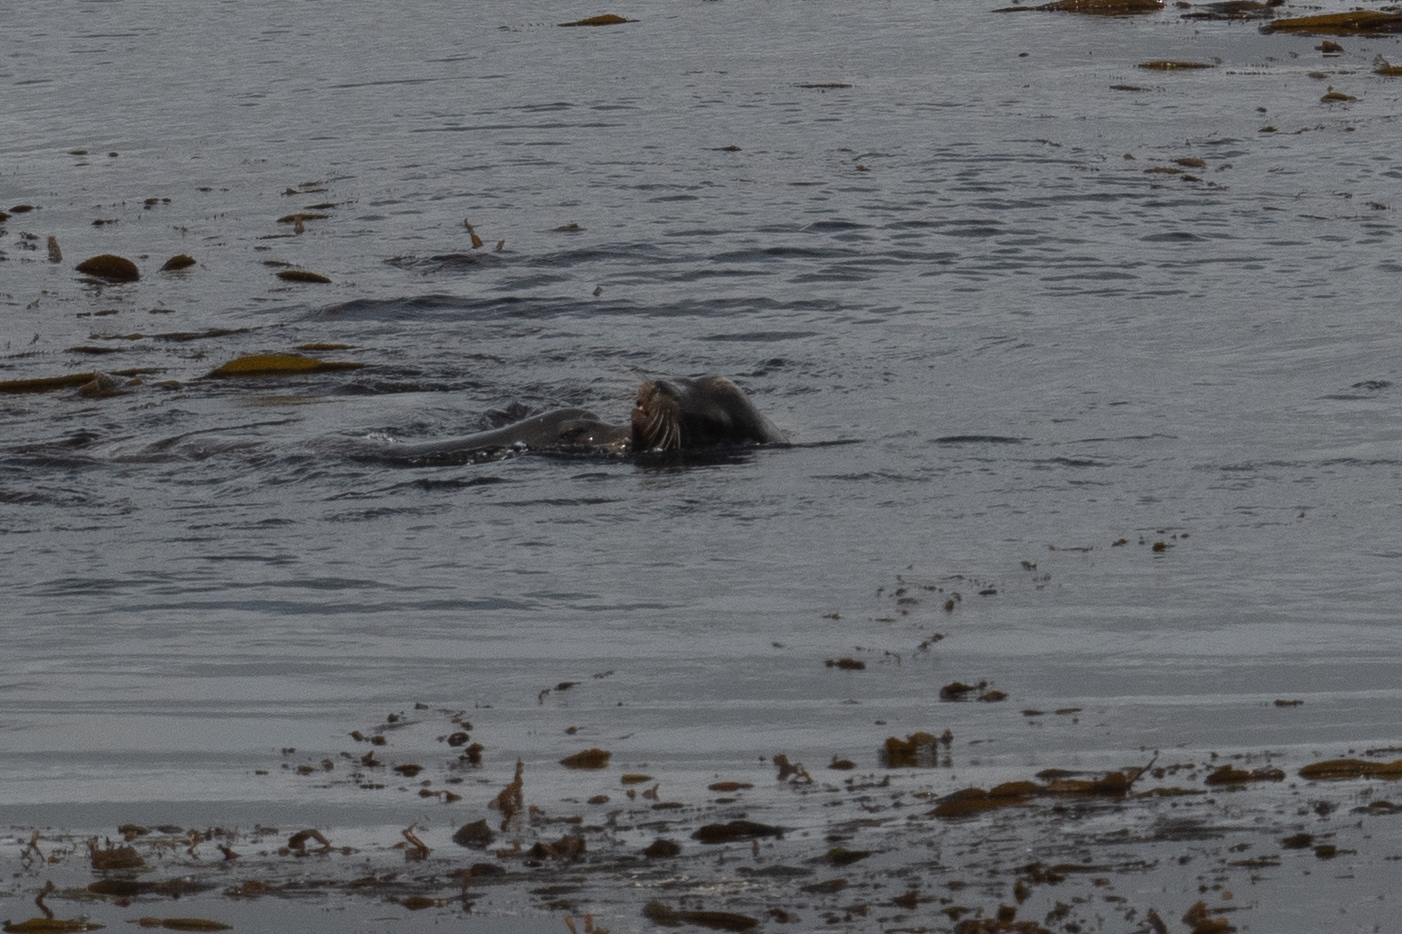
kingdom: Animalia
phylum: Chordata
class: Mammalia
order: Carnivora
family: Mustelidae
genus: Enhydra
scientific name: Enhydra lutris
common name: Sea otter
